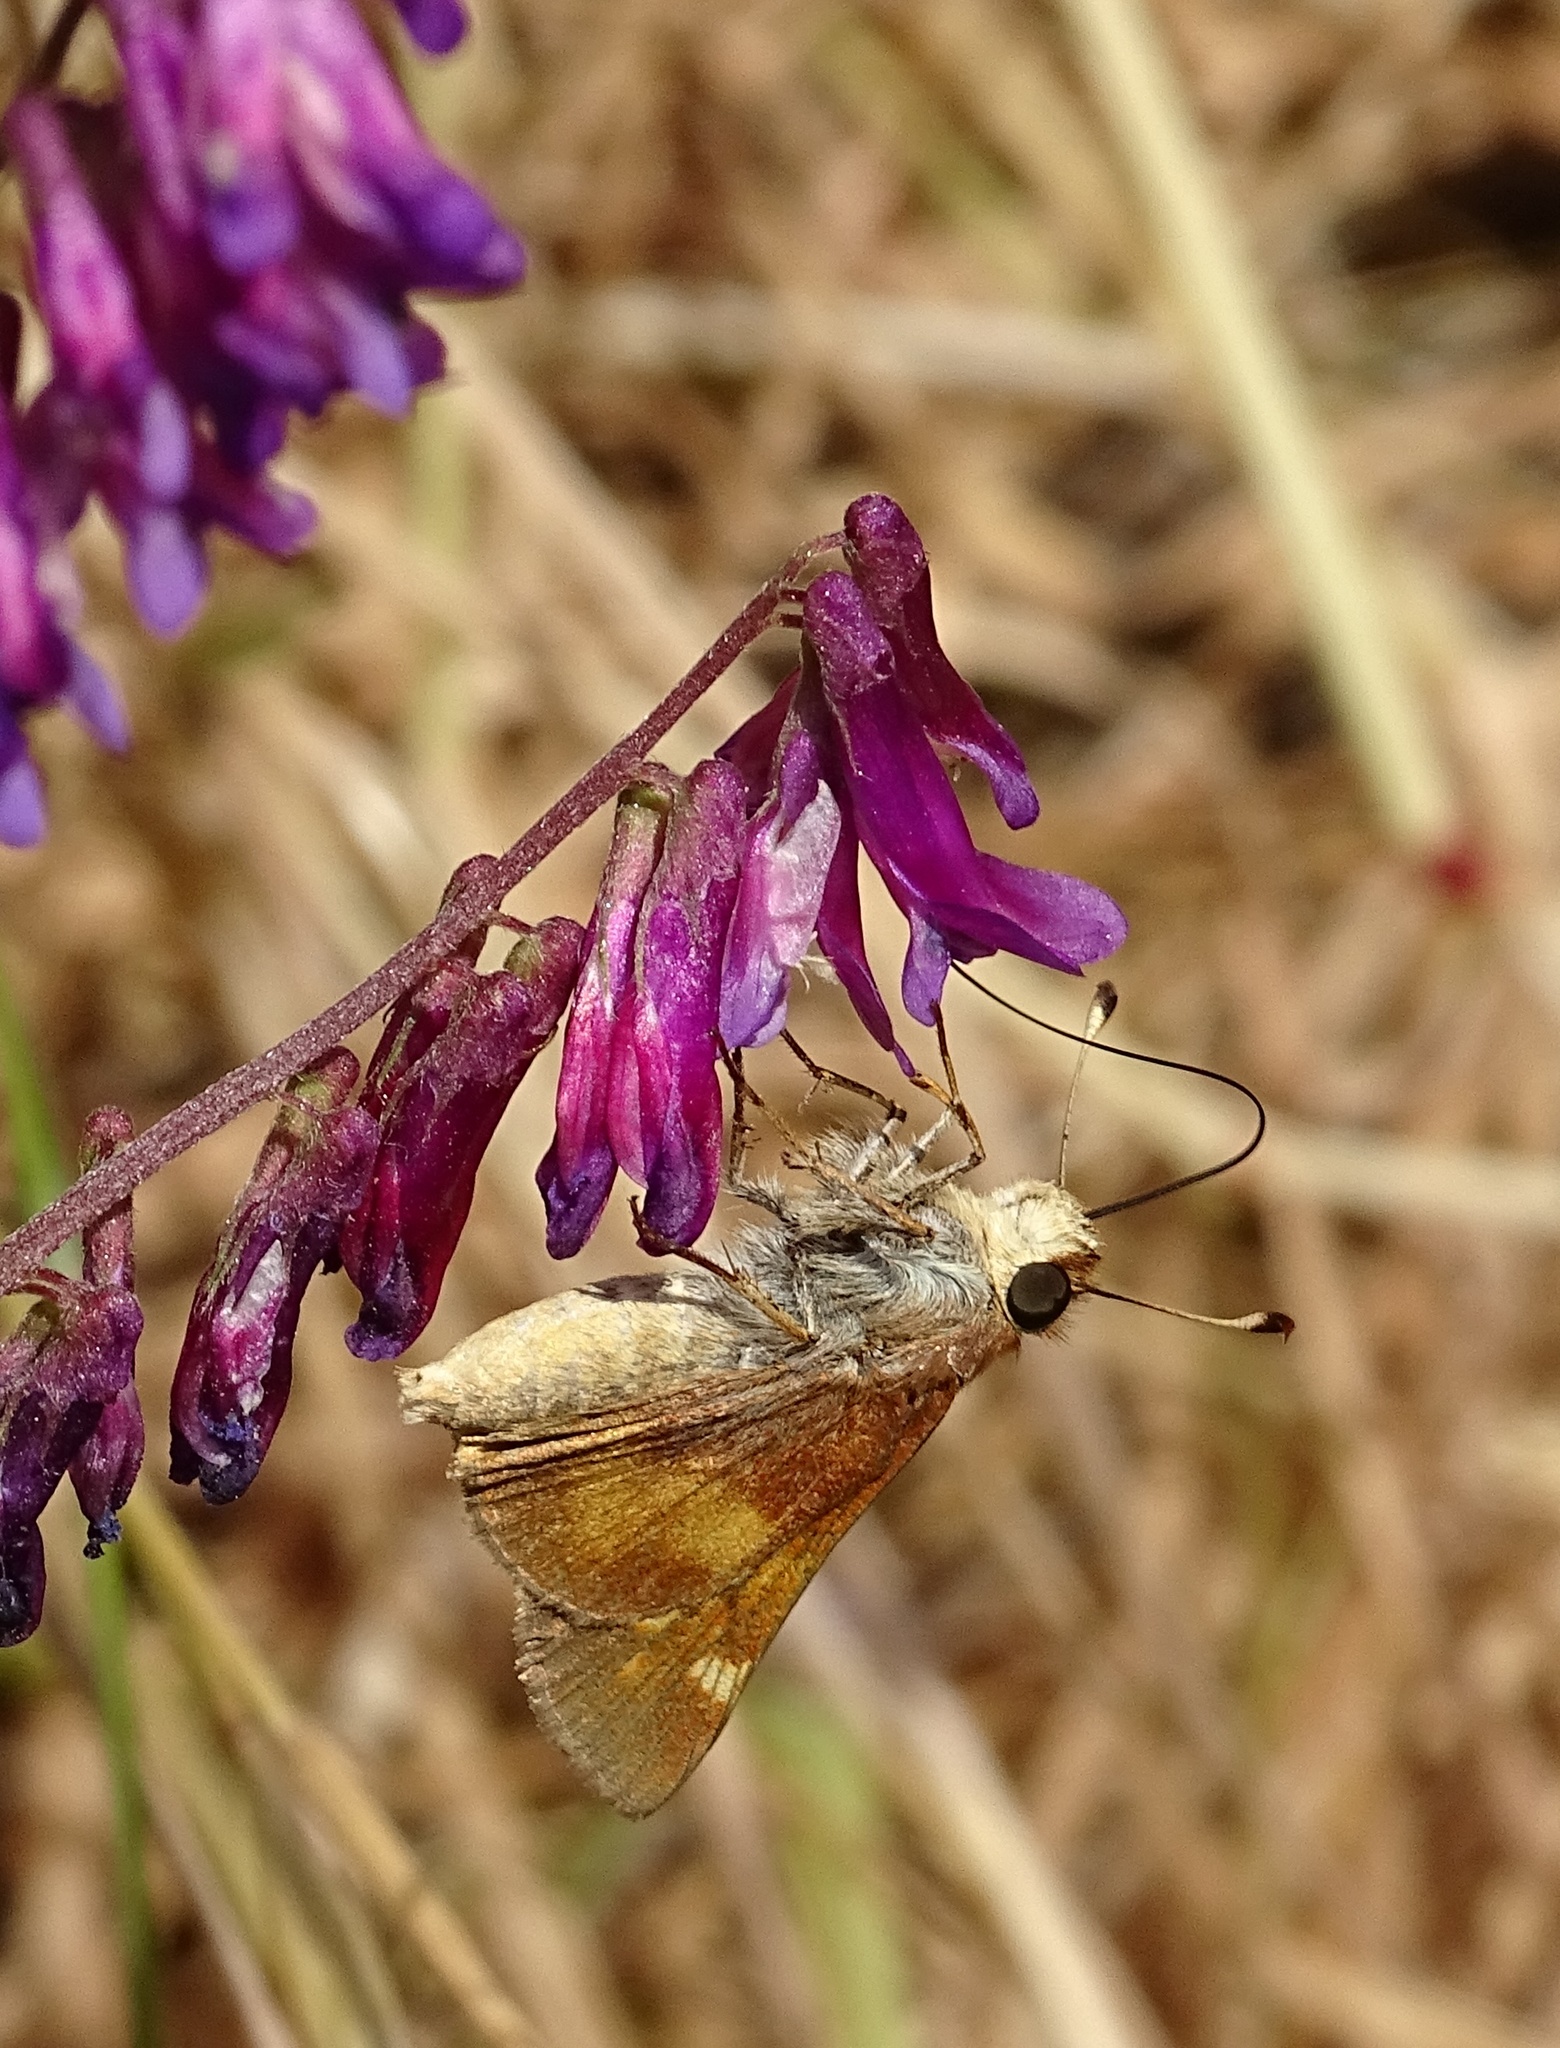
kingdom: Animalia
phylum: Arthropoda
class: Insecta
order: Lepidoptera
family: Hesperiidae
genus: Lon
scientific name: Lon melane
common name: Umber skipper
